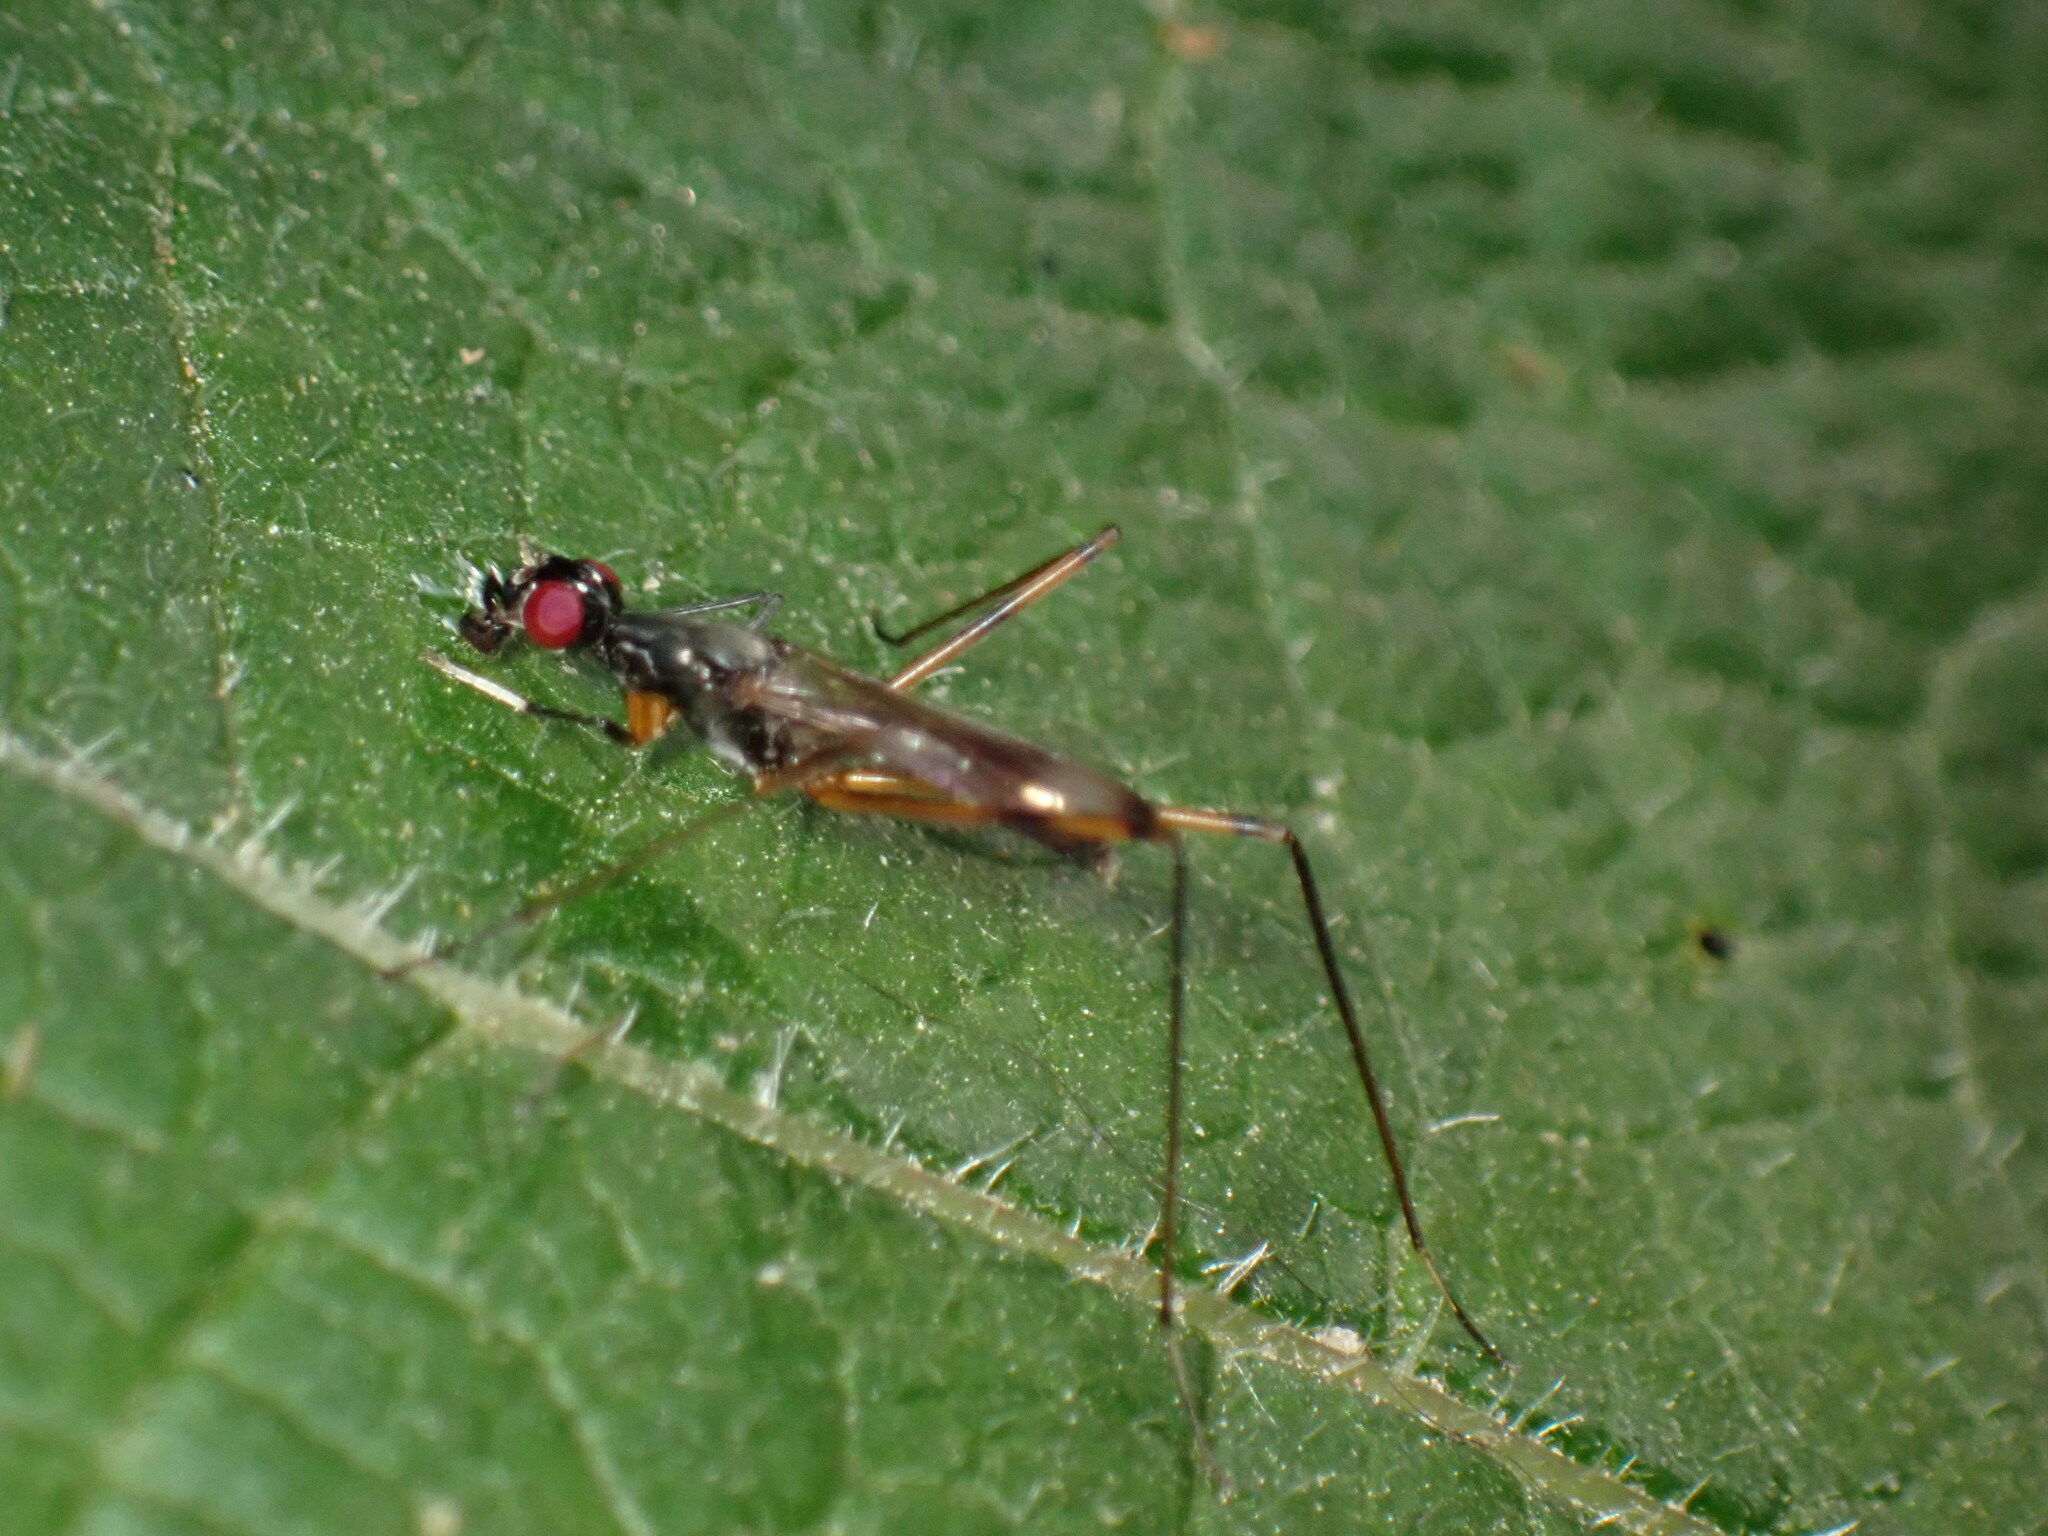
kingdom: Animalia
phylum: Arthropoda
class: Insecta
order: Diptera
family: Micropezidae
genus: Rainieria
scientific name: Rainieria antennaepes
